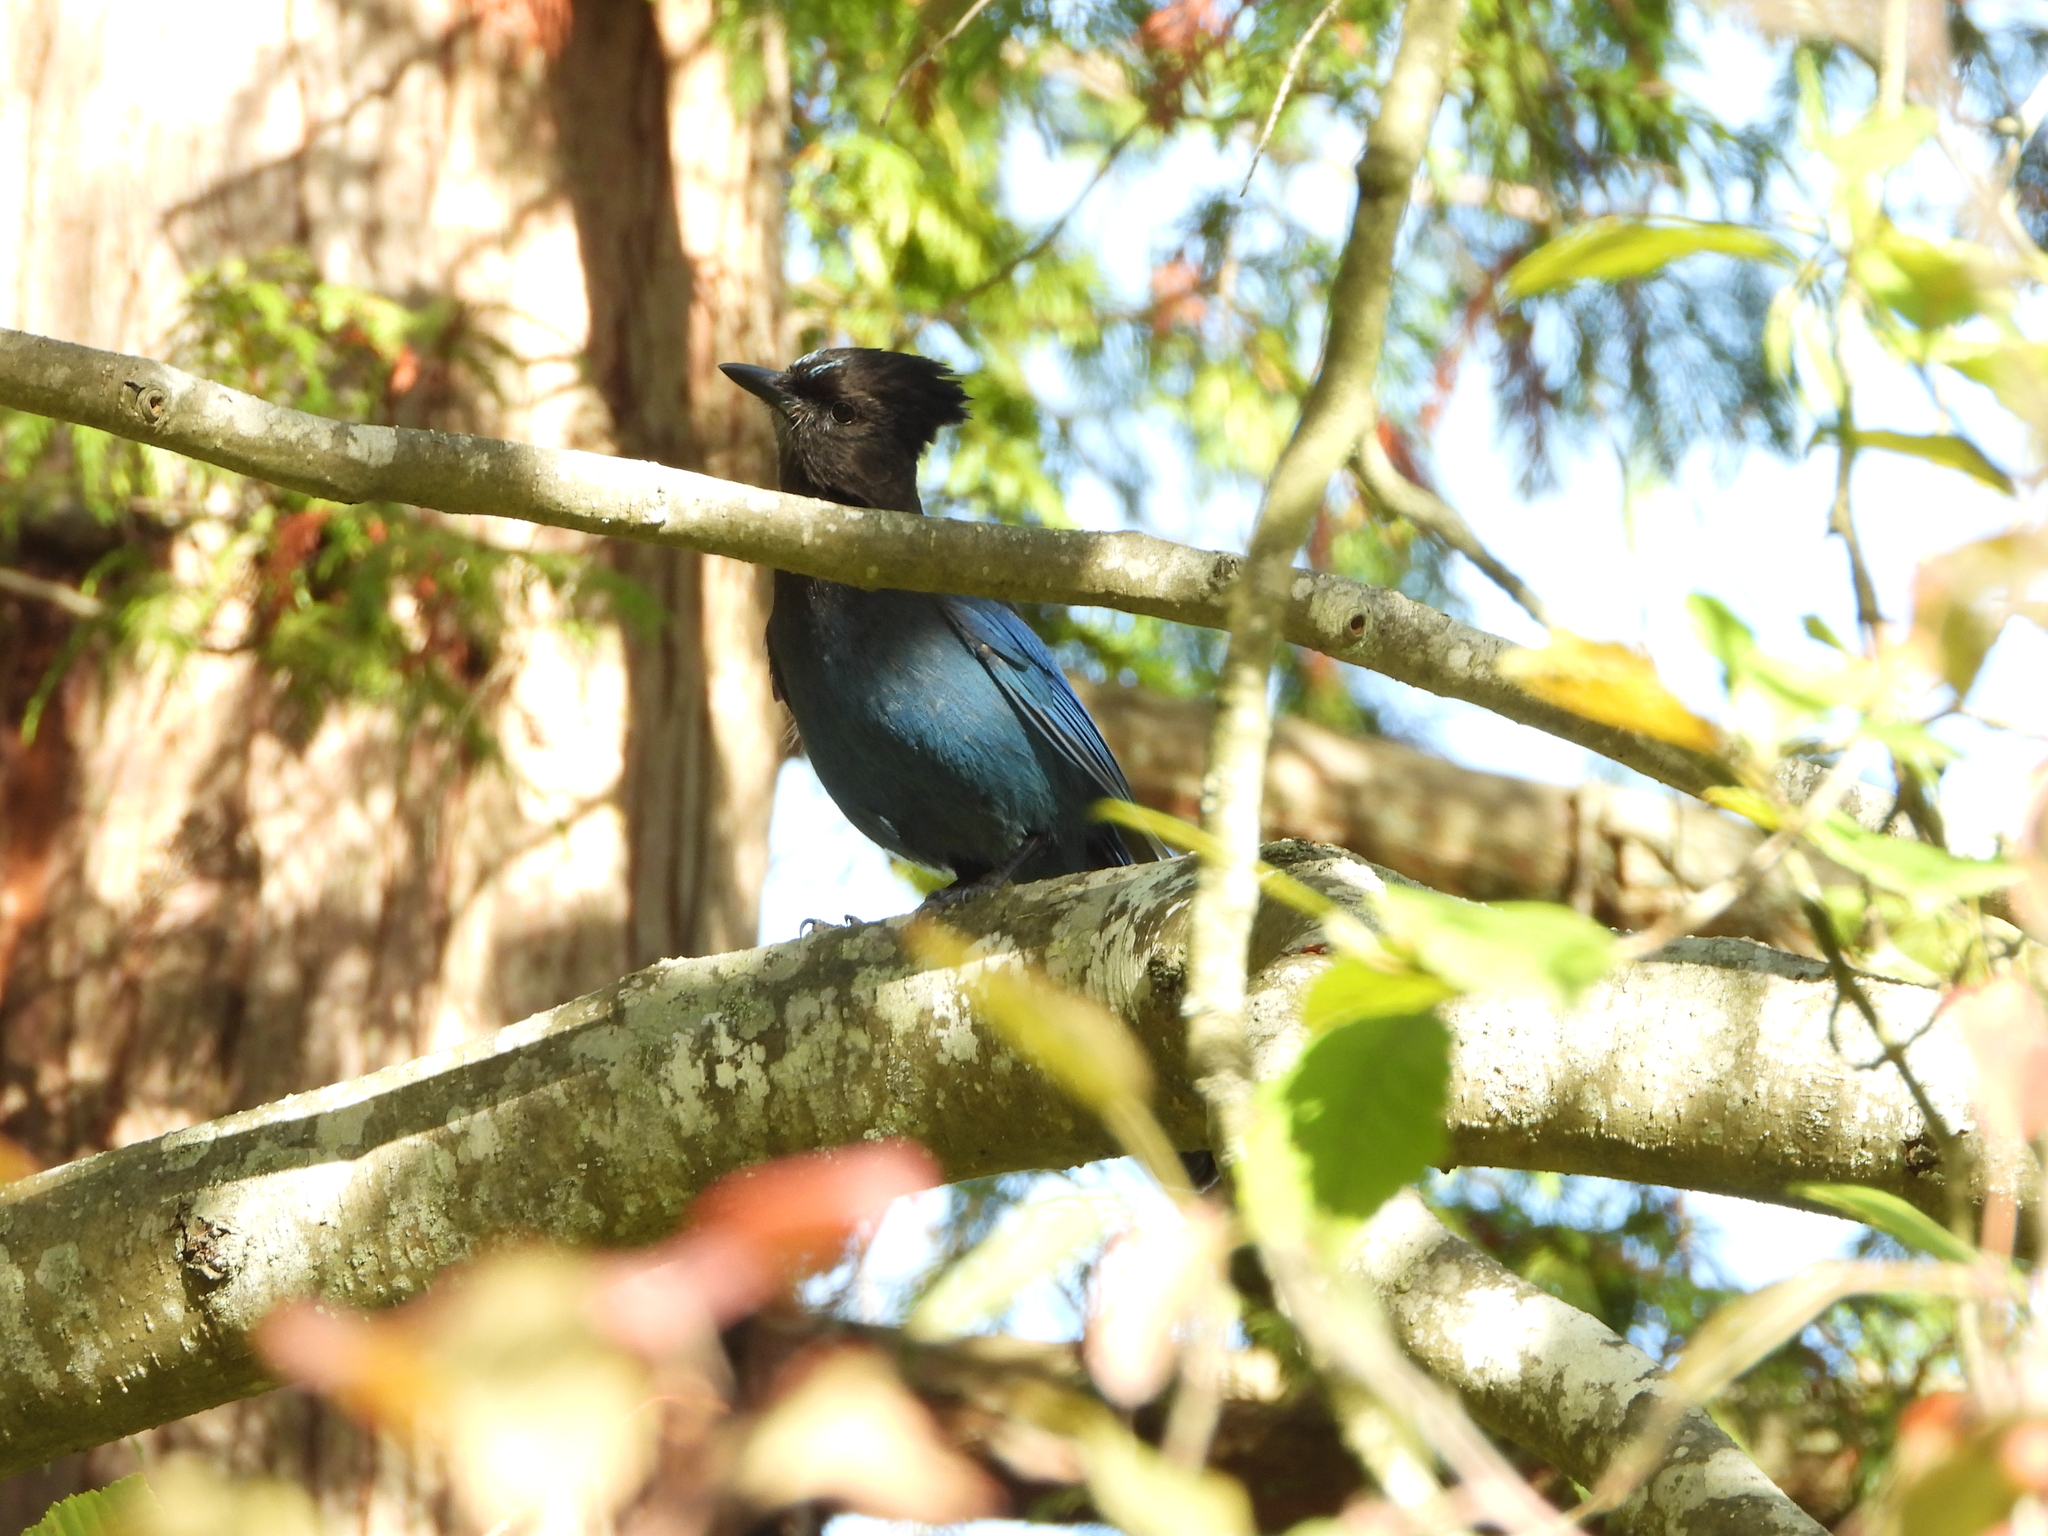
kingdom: Animalia
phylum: Chordata
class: Aves
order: Passeriformes
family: Corvidae
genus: Cyanocitta
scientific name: Cyanocitta stelleri
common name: Steller's jay
